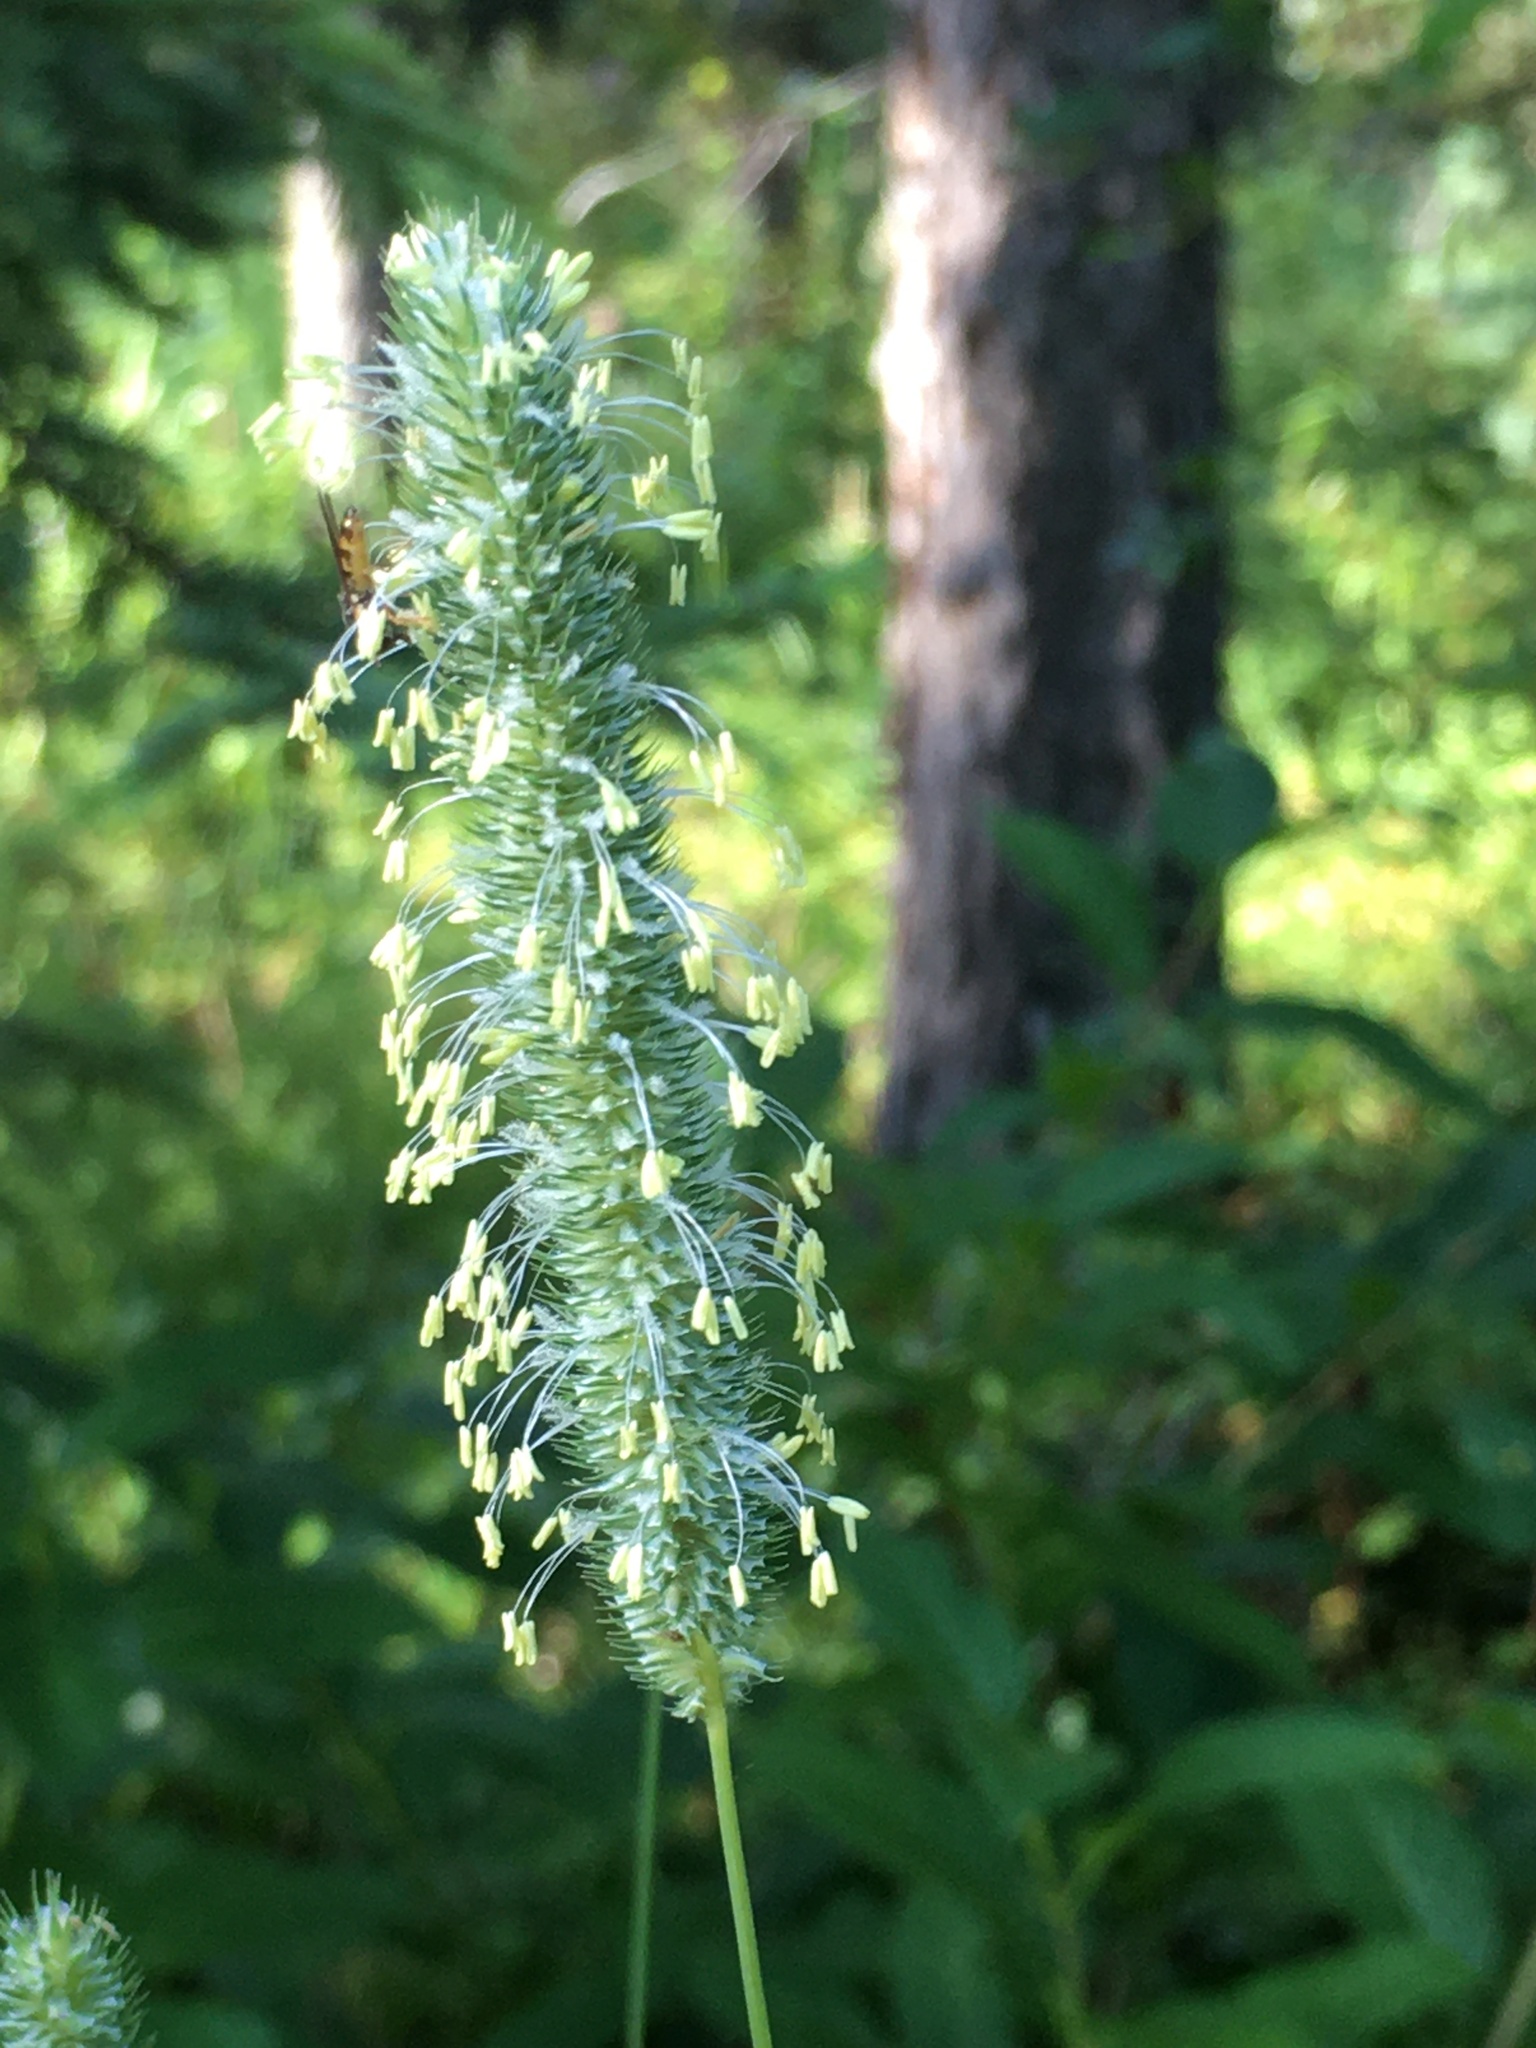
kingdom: Plantae
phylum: Tracheophyta
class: Liliopsida
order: Poales
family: Poaceae
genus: Phleum
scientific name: Phleum pratense
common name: Timothy grass
